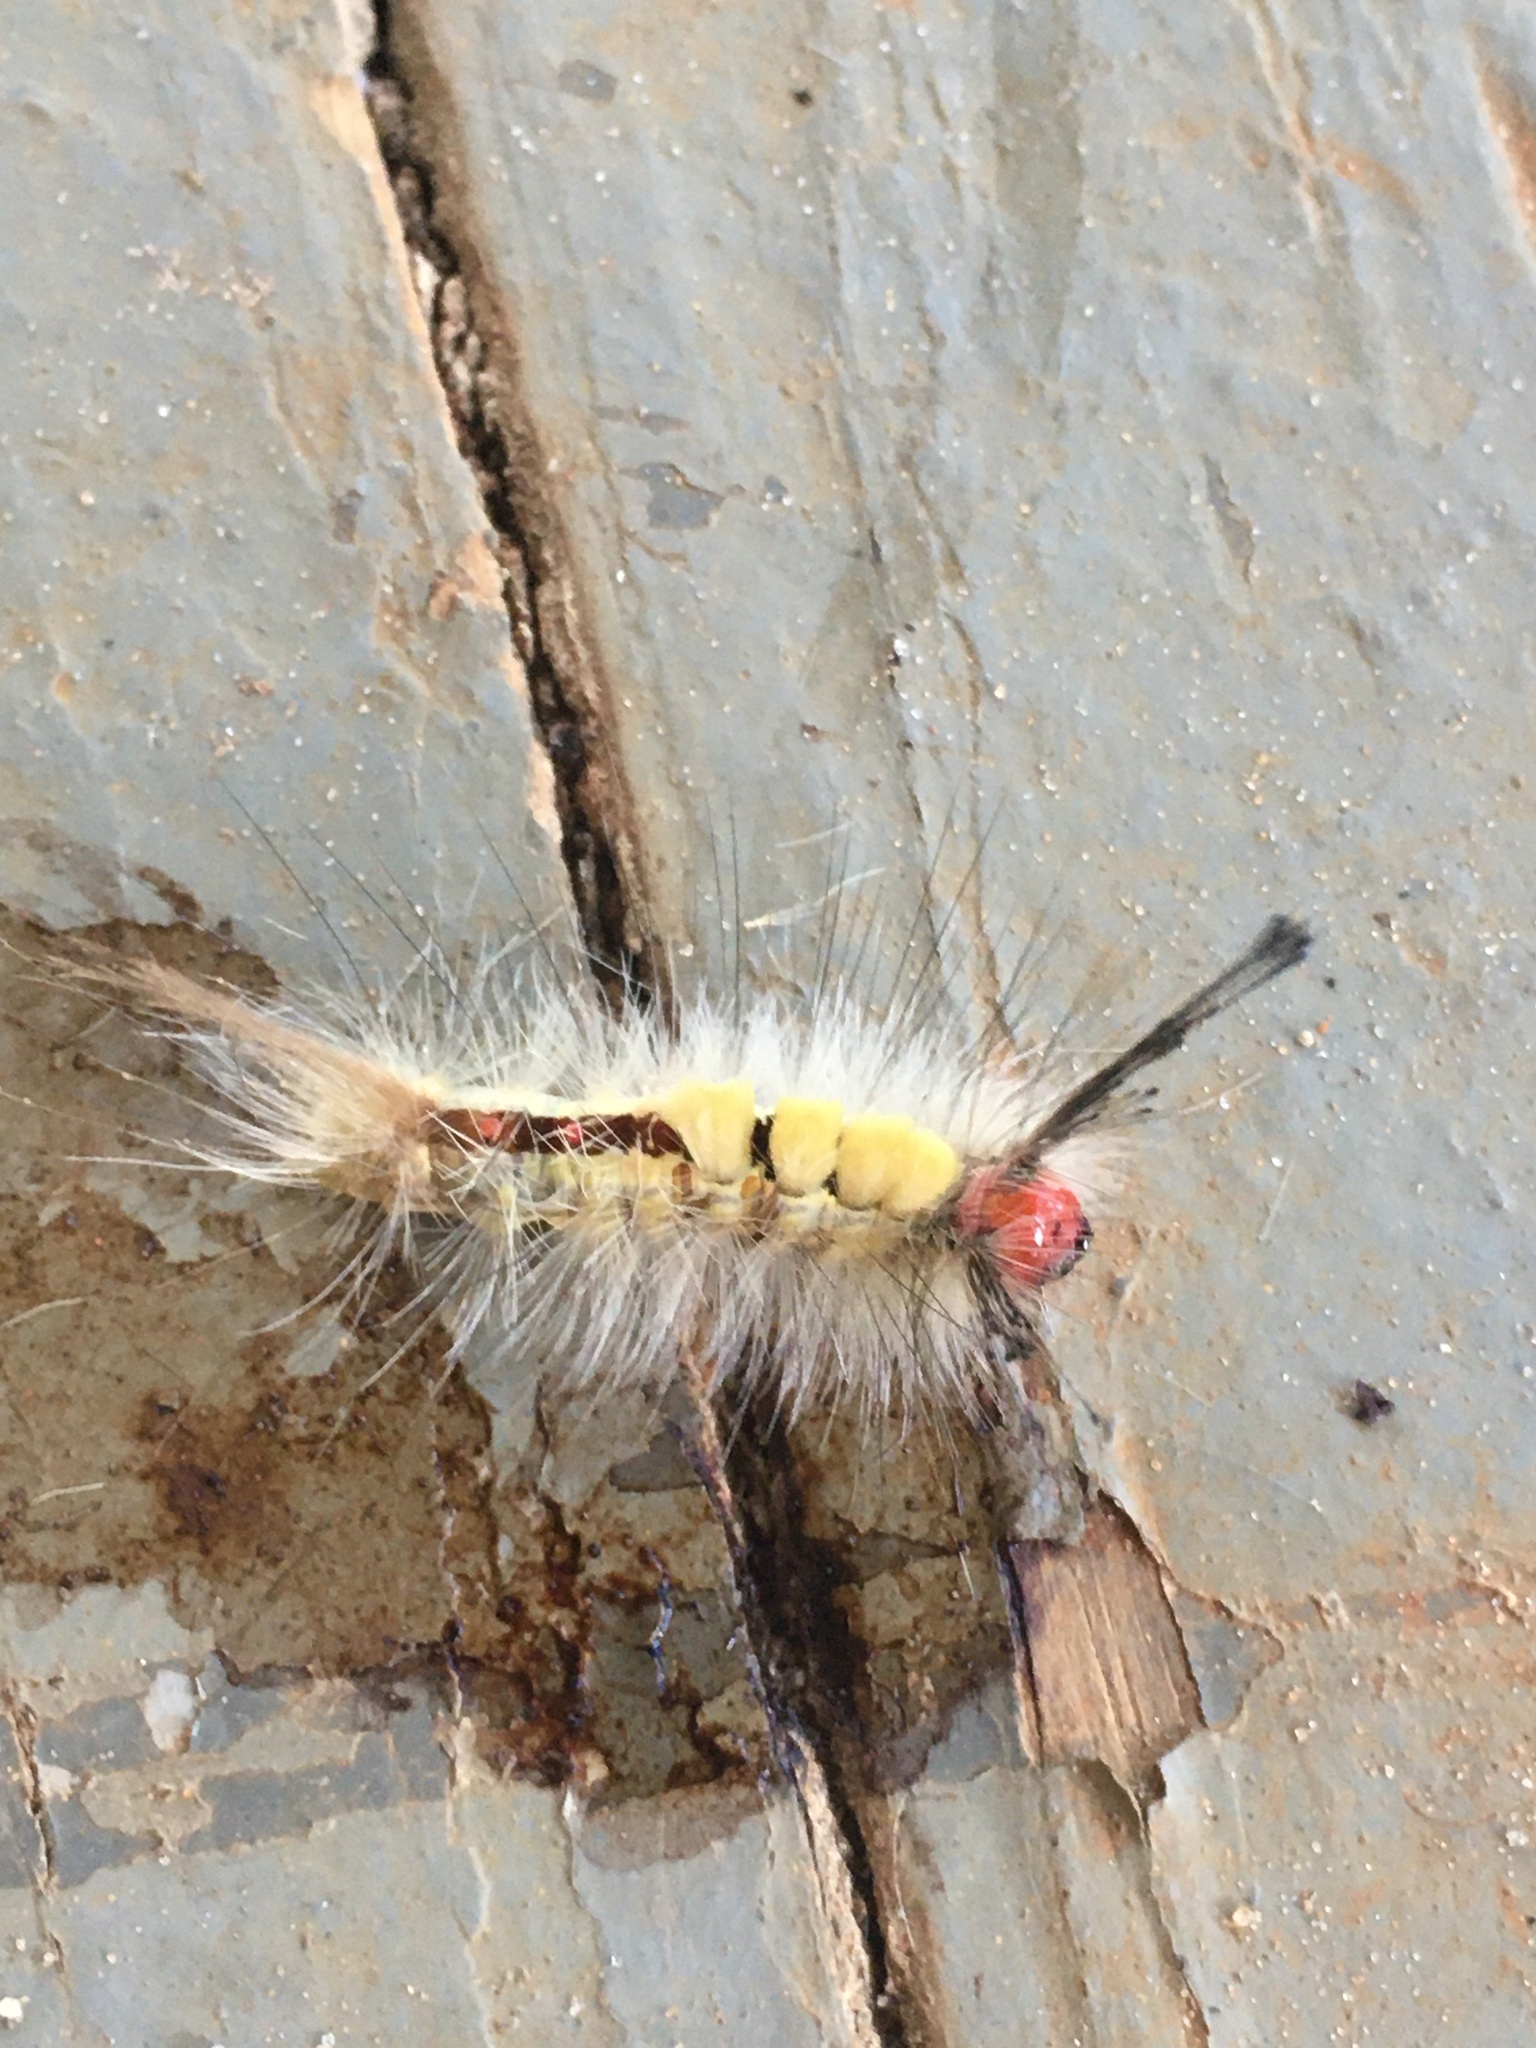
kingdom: Animalia
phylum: Arthropoda
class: Insecta
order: Lepidoptera
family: Erebidae
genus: Orgyia
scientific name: Orgyia leucostigma
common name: White-marked tussock moth
